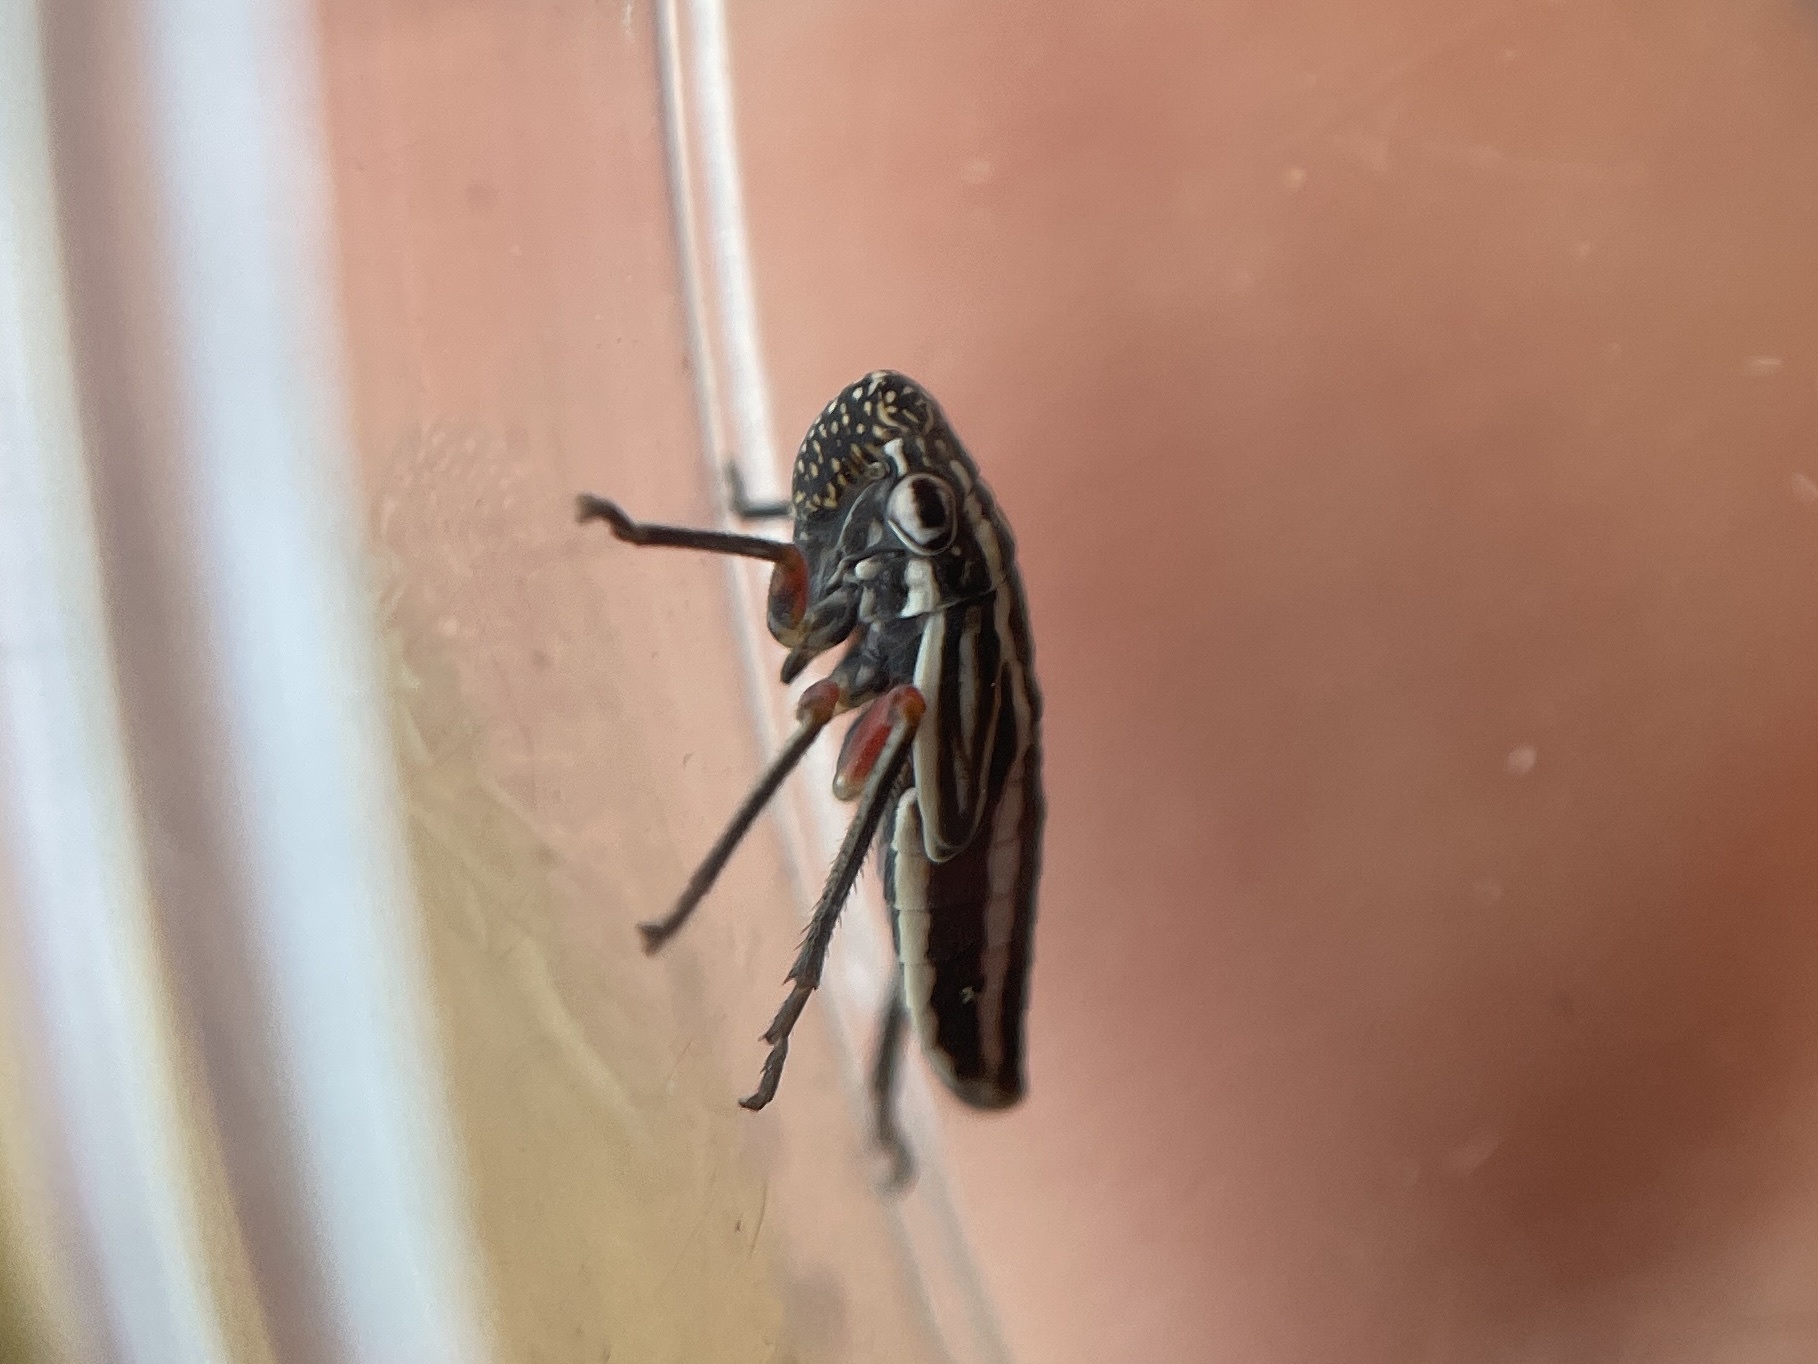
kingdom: Animalia
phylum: Arthropoda
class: Insecta
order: Hemiptera
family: Cicadellidae
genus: Cuerna
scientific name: Cuerna costalis
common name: Lateral-lined sharpshooter
